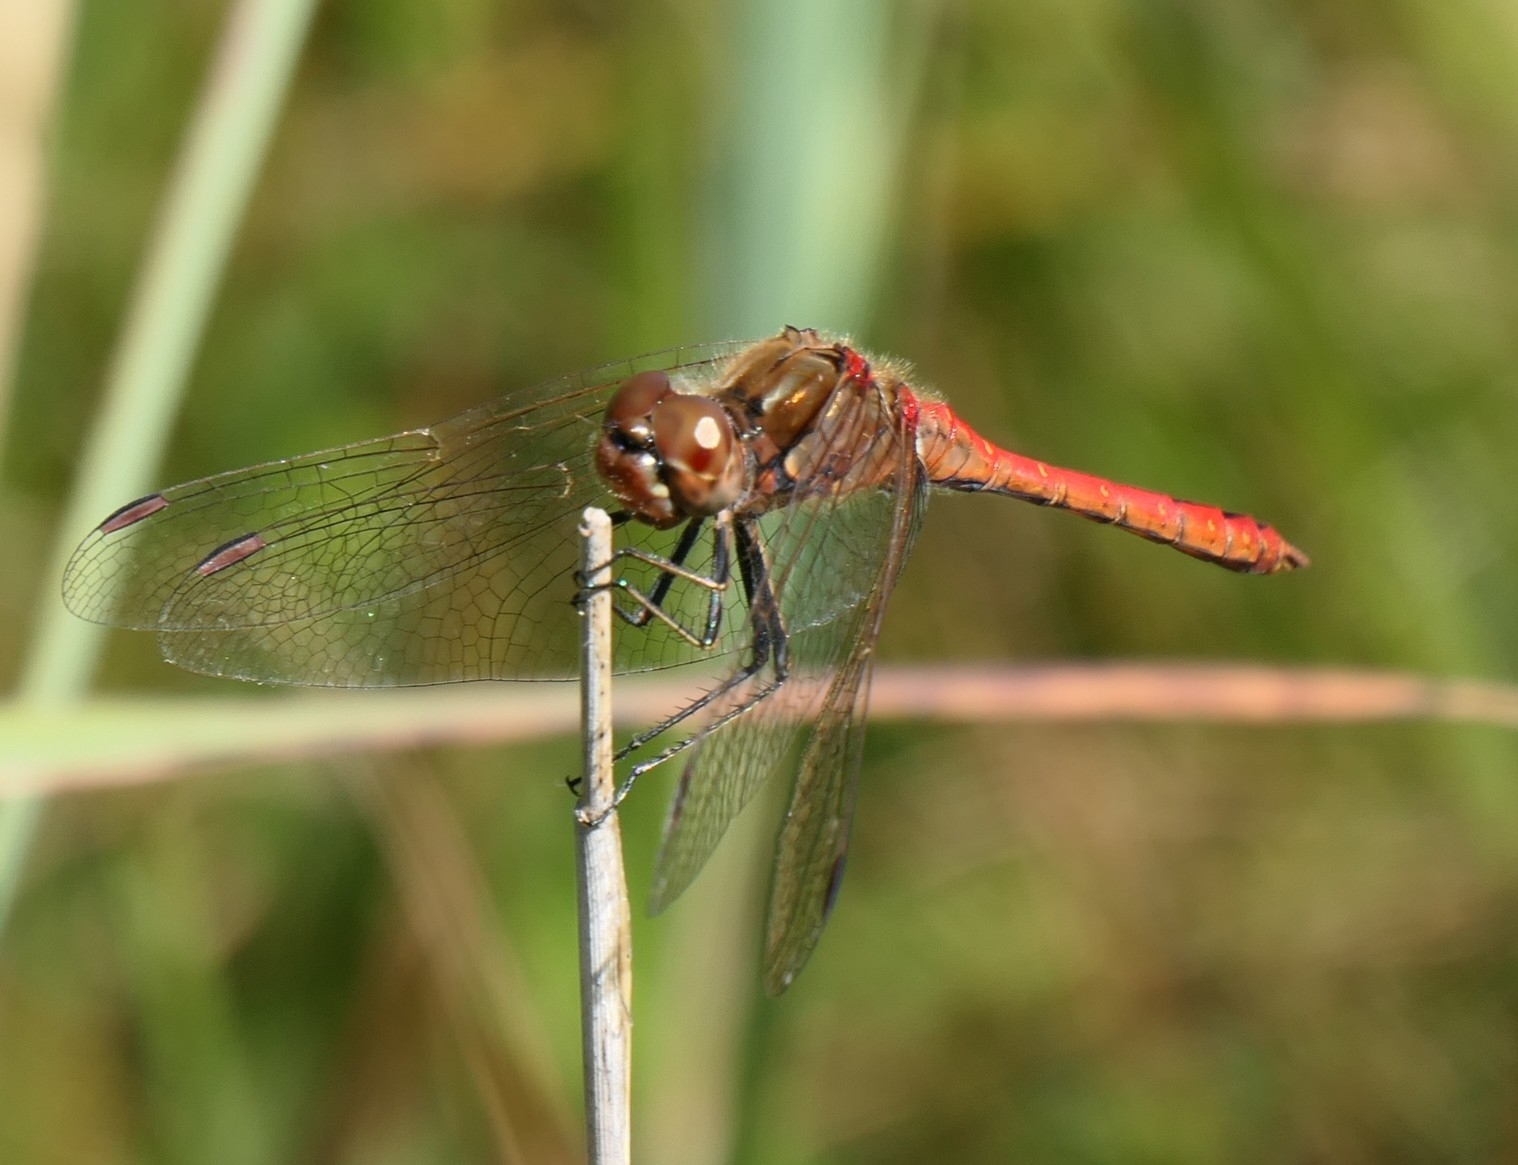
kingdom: Animalia
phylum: Arthropoda
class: Insecta
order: Odonata
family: Libellulidae
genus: Sympetrum
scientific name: Sympetrum vulgatum
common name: Vagrant darter
